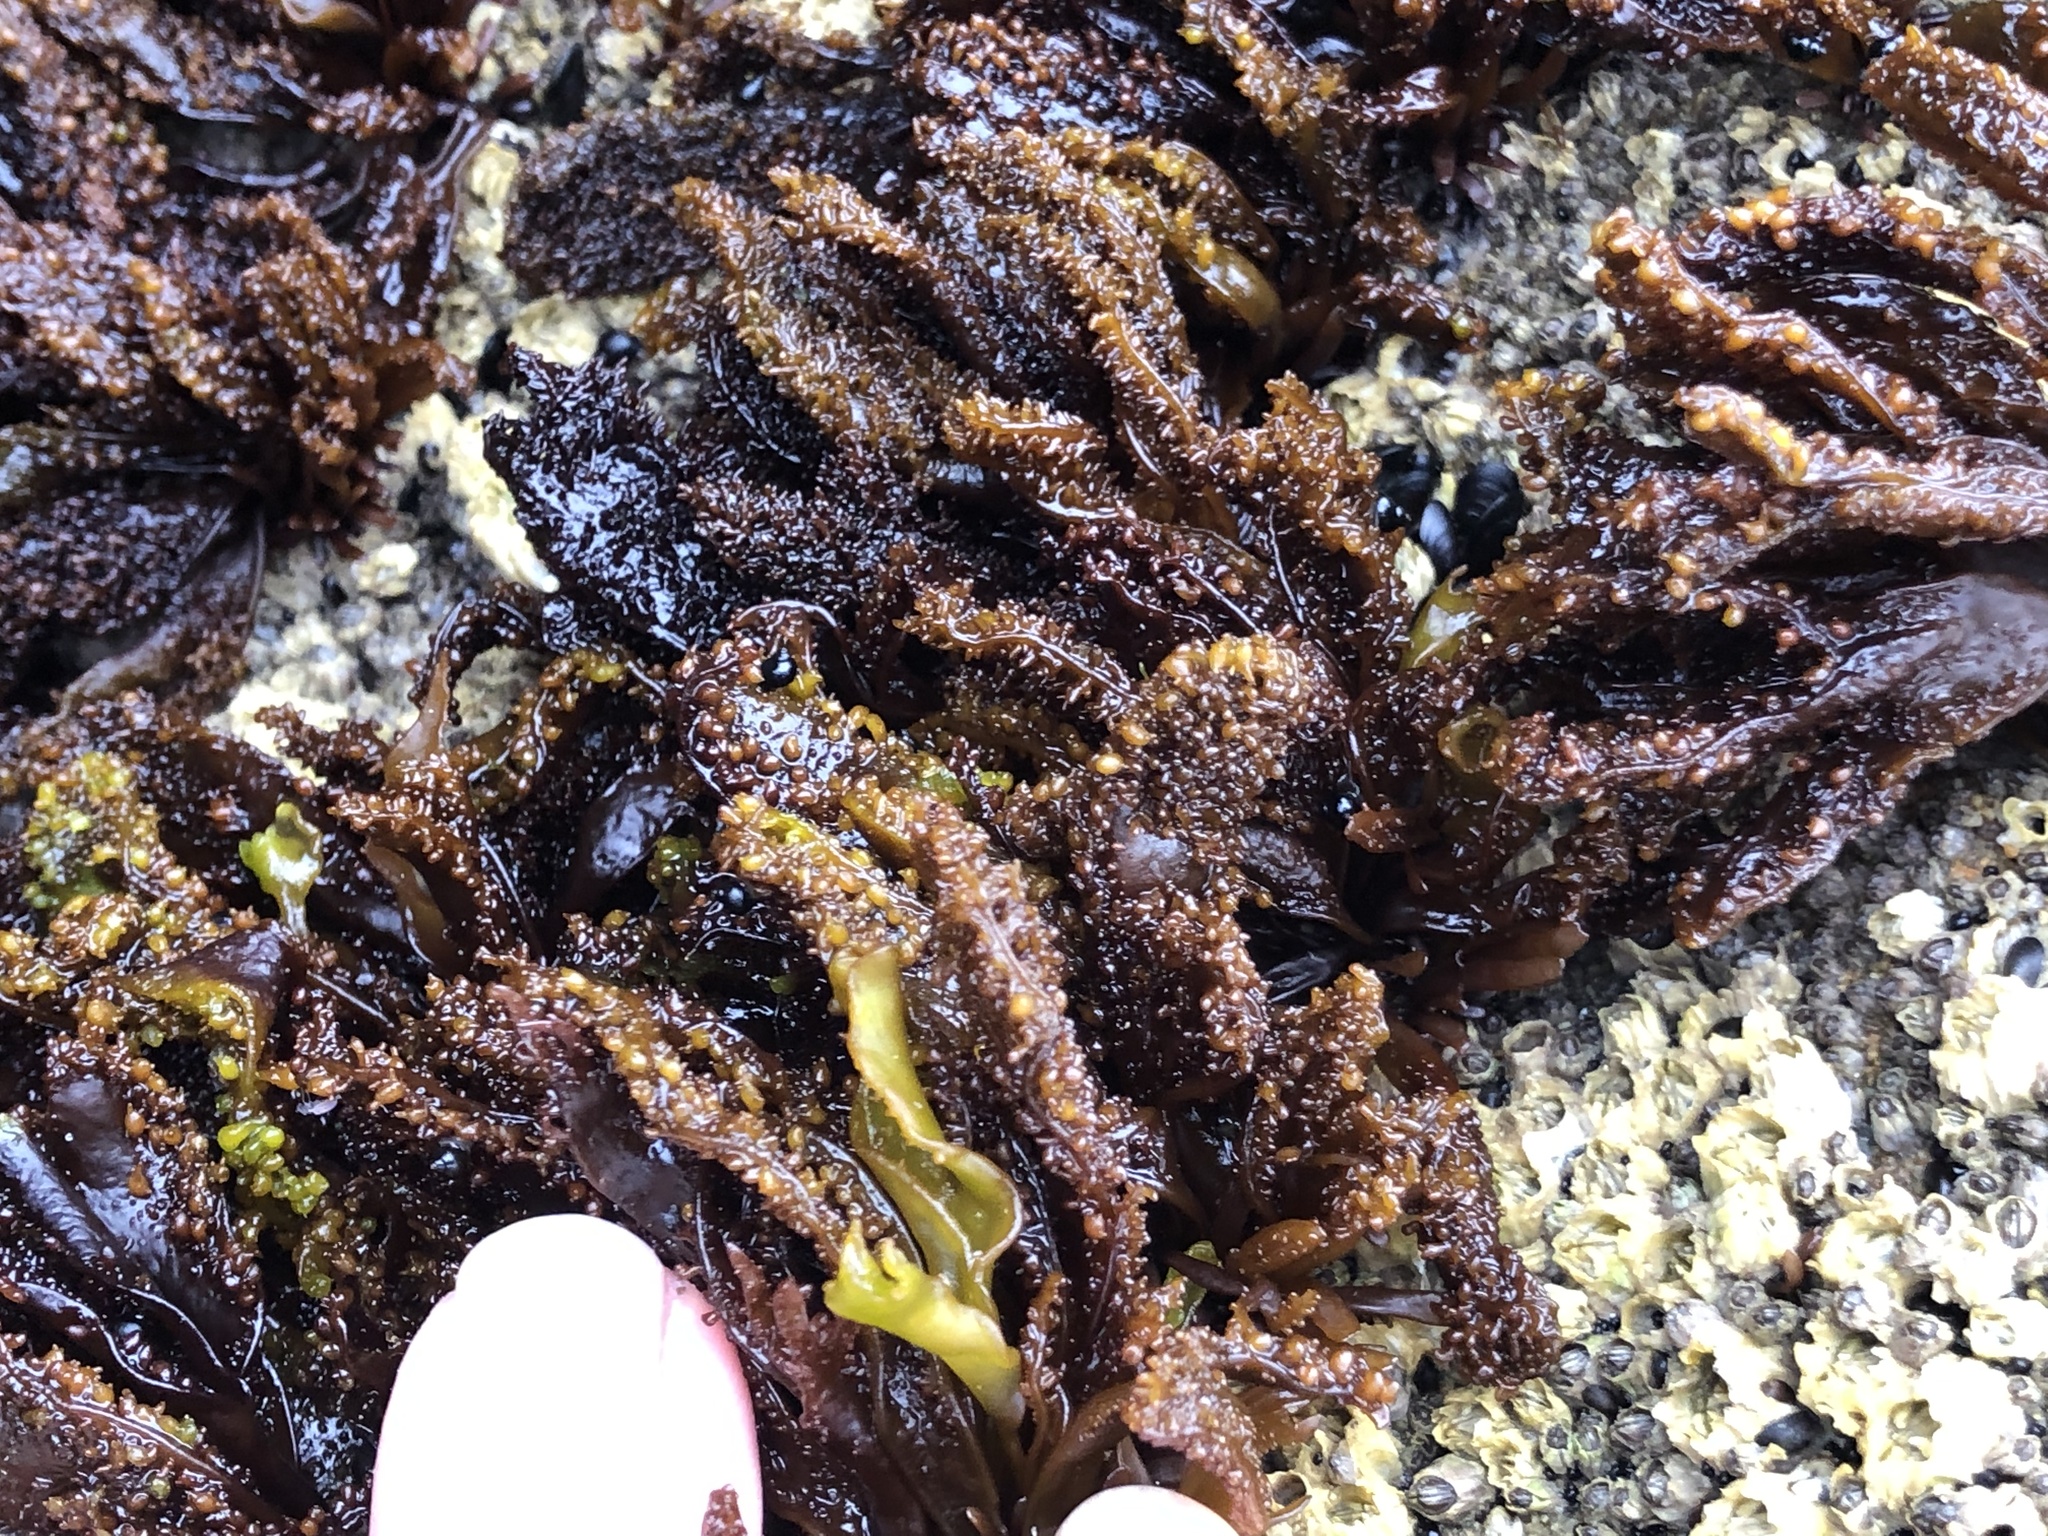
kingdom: Plantae
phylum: Rhodophyta
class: Florideophyceae
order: Gigartinales
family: Phyllophoraceae
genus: Mastocarpus
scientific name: Mastocarpus papillatus
